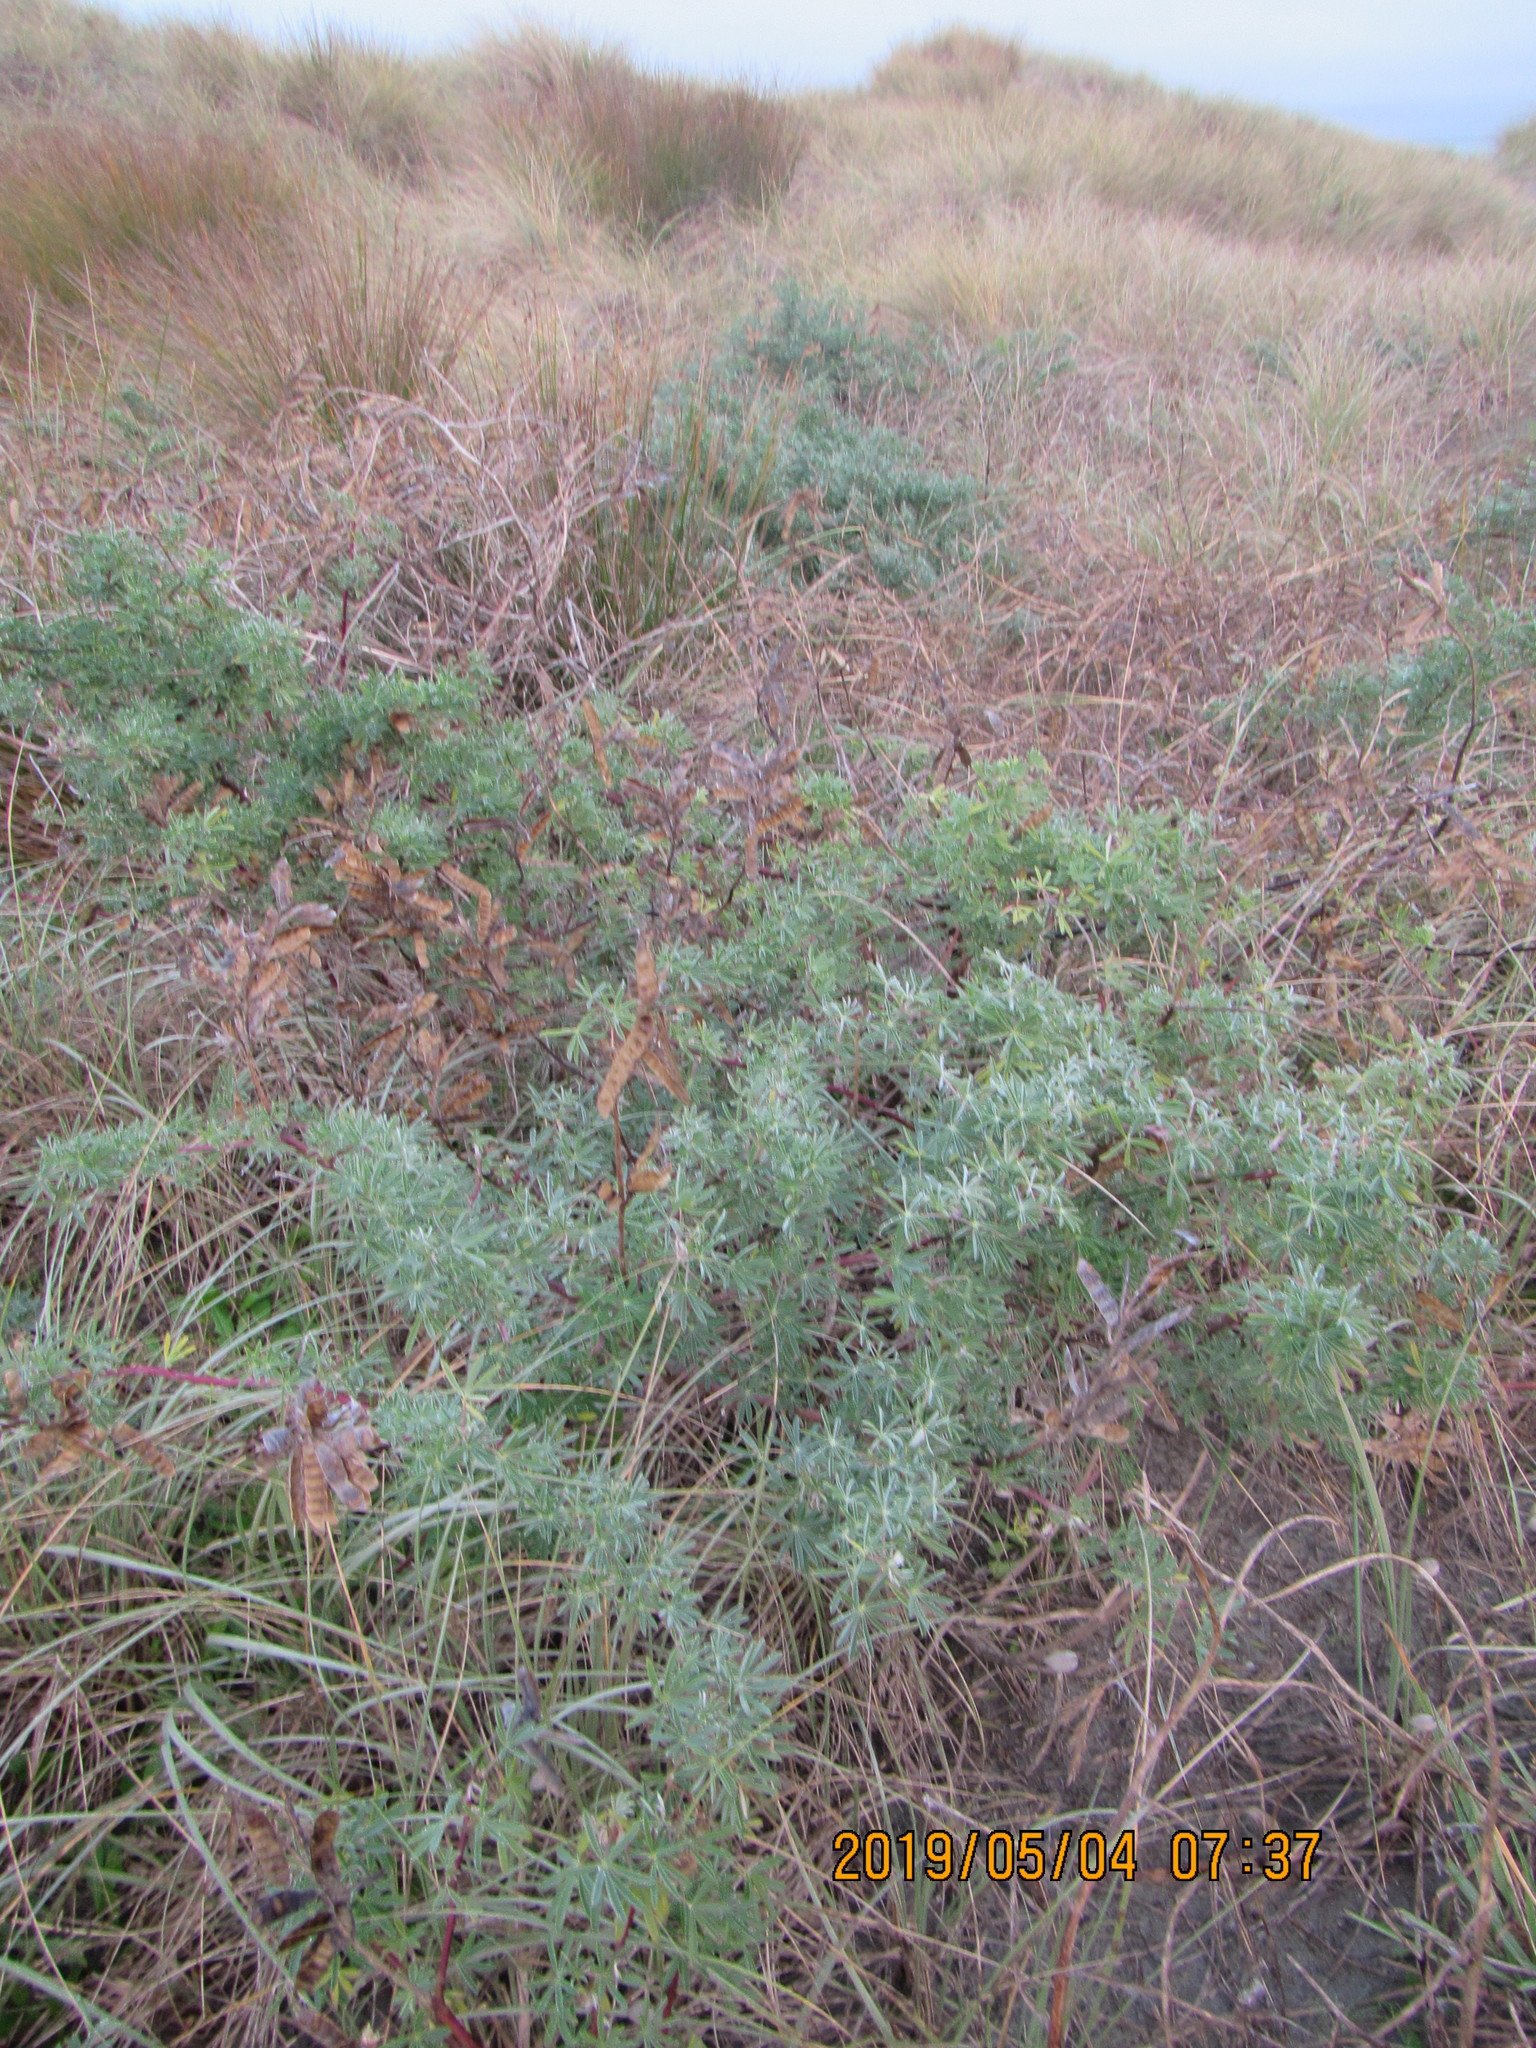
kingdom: Plantae
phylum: Tracheophyta
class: Magnoliopsida
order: Fabales
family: Fabaceae
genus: Lupinus
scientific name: Lupinus arboreus
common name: Yellow bush lupine
